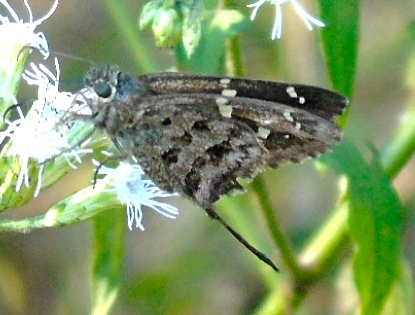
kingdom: Animalia
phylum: Arthropoda
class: Insecta
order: Lepidoptera
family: Hesperiidae
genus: Thorybes
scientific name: Thorybes
